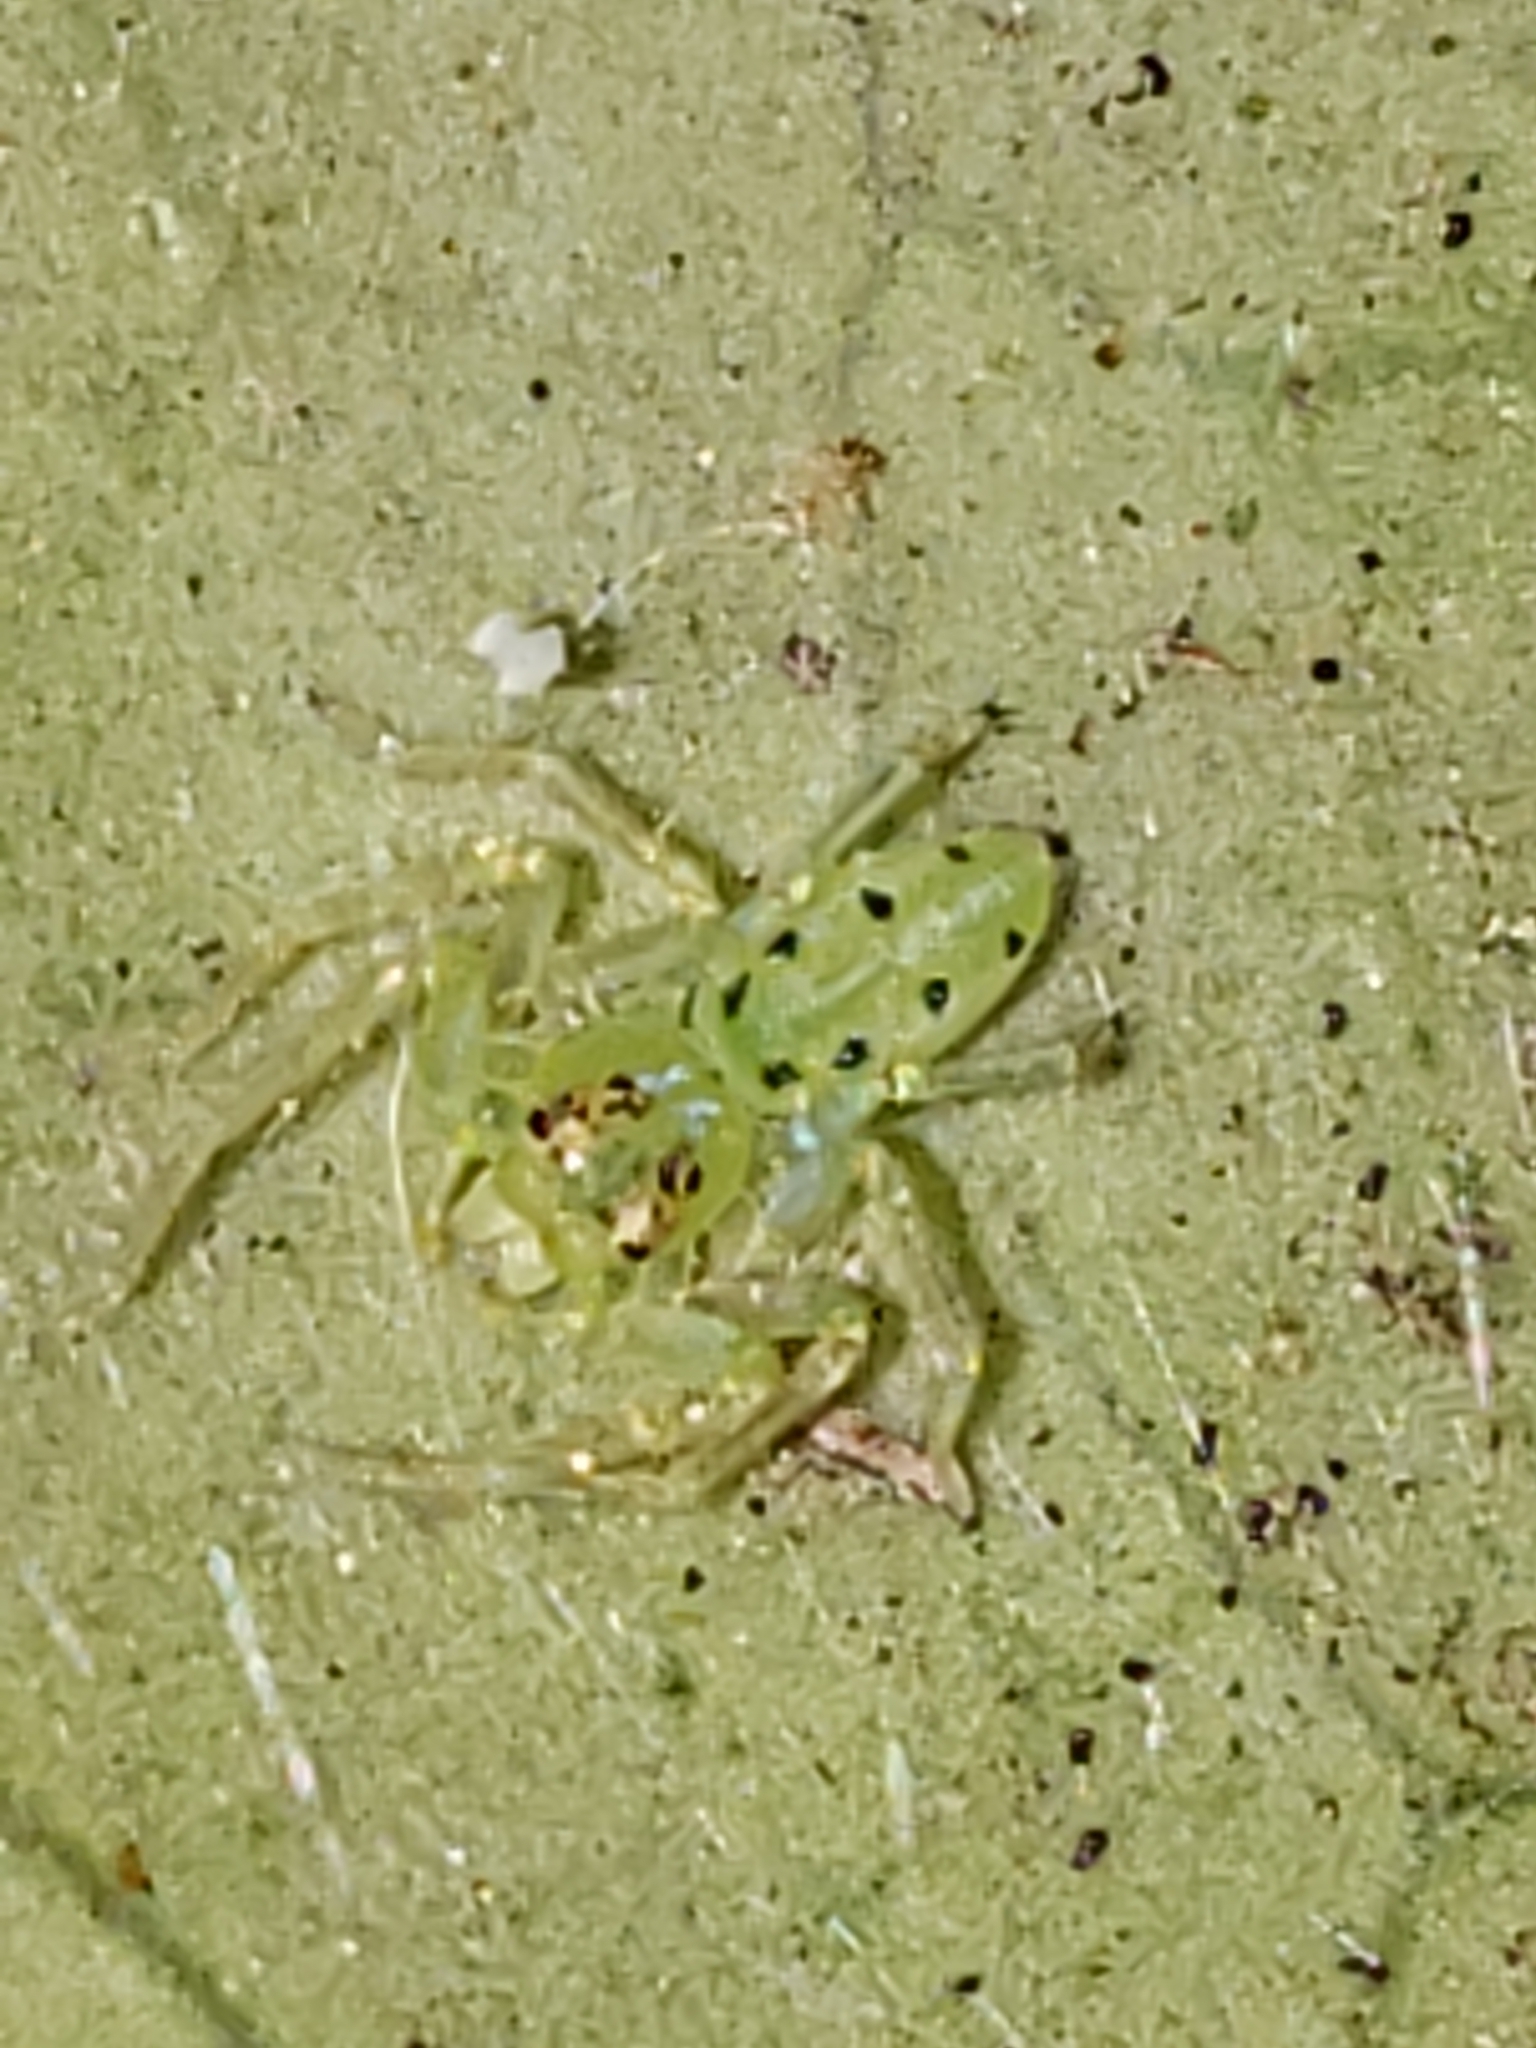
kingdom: Animalia
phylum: Arthropoda
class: Arachnida
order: Araneae
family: Salticidae
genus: Lyssomanes
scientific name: Lyssomanes viridis
